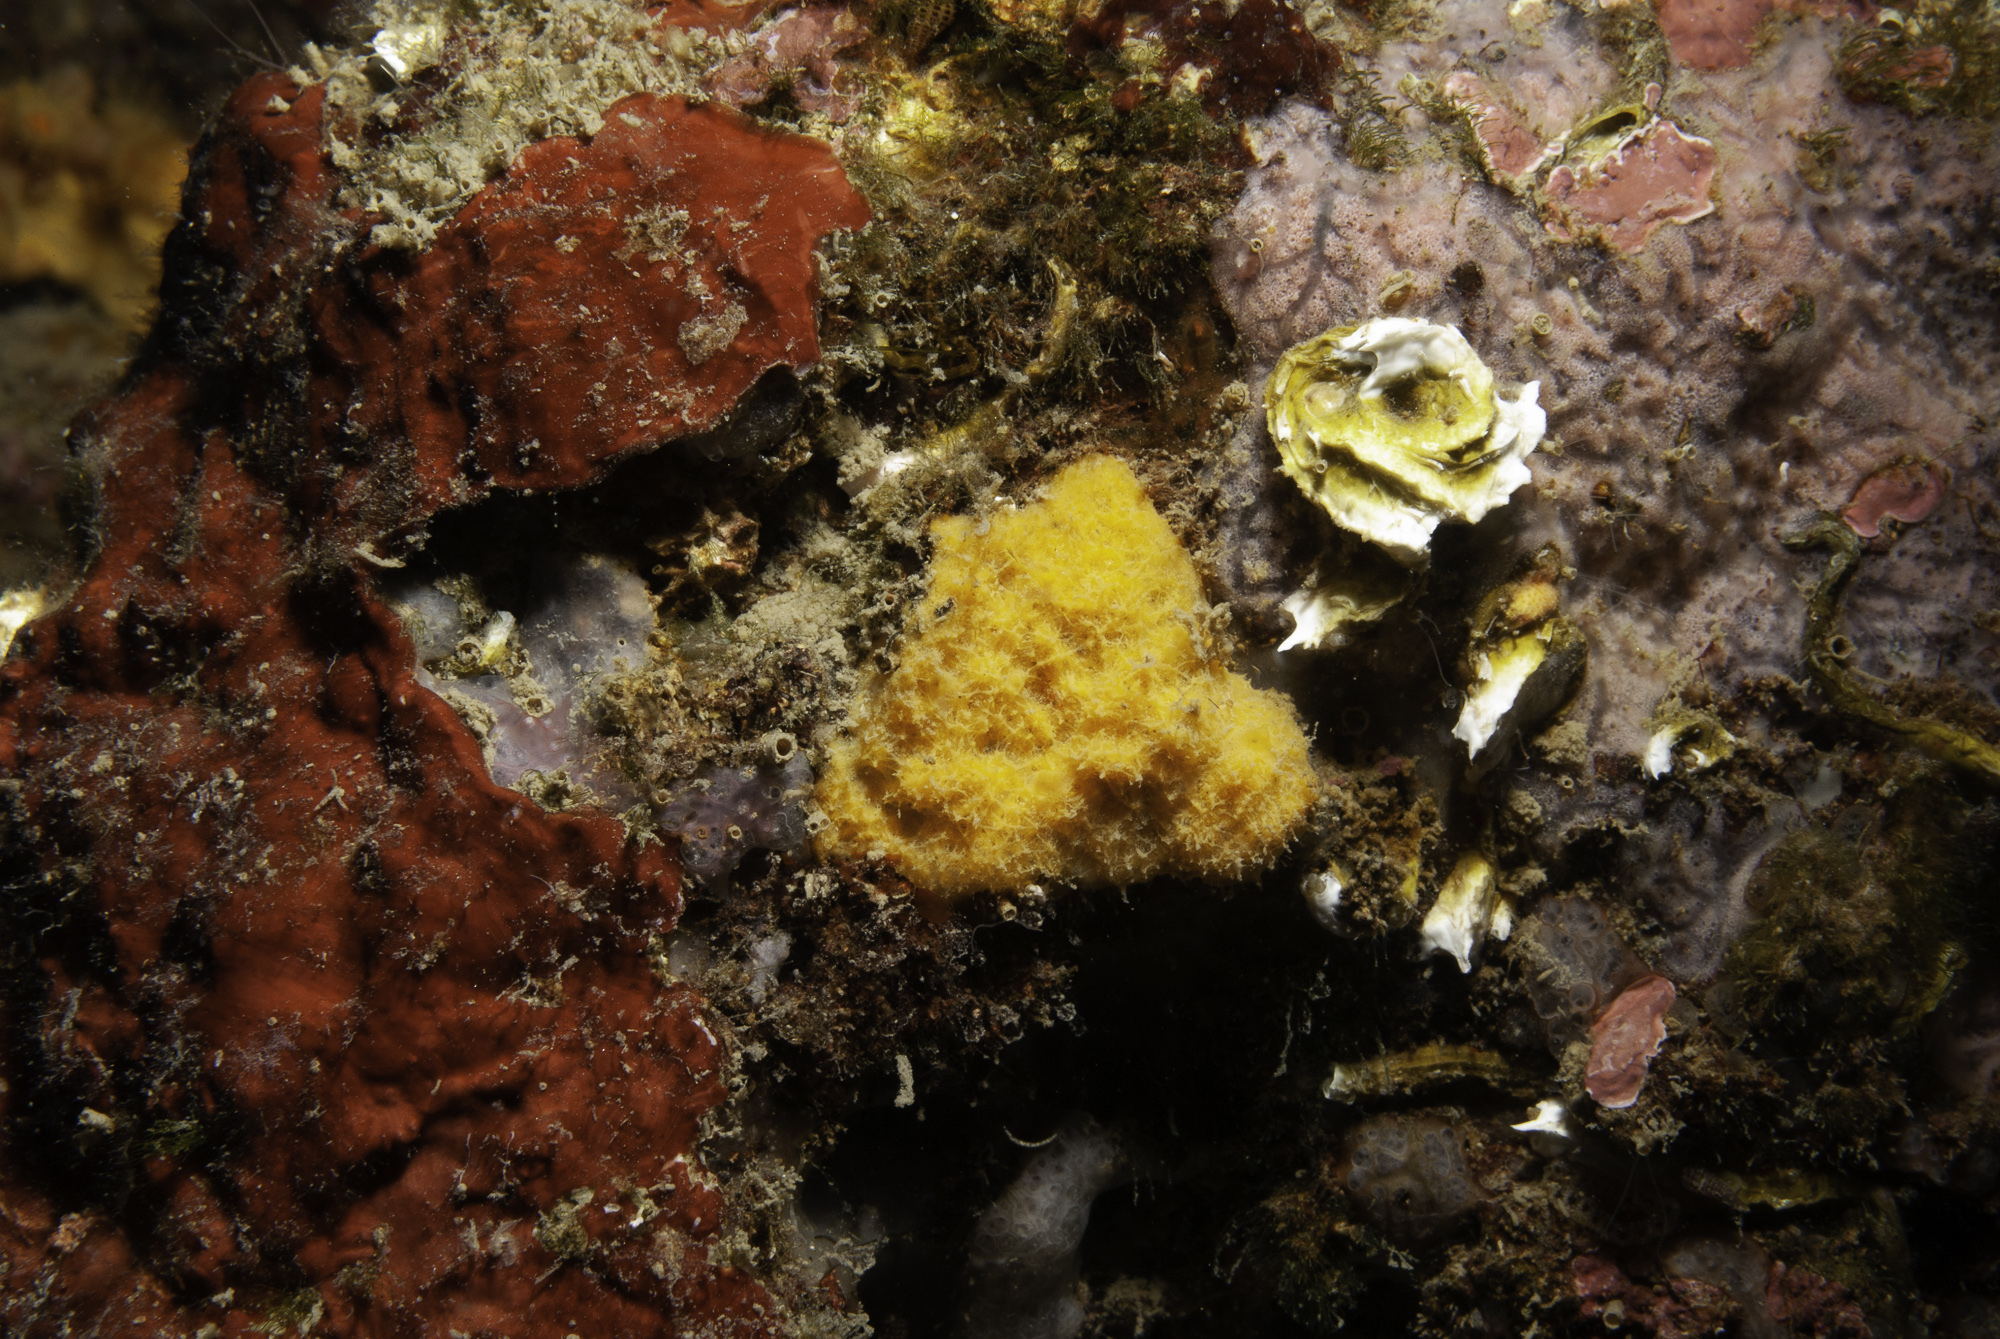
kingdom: Animalia
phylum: Porifera
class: Demospongiae
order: Agelasida
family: Hymerhabdiidae
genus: Prosuberites
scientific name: Prosuberites longispinus
